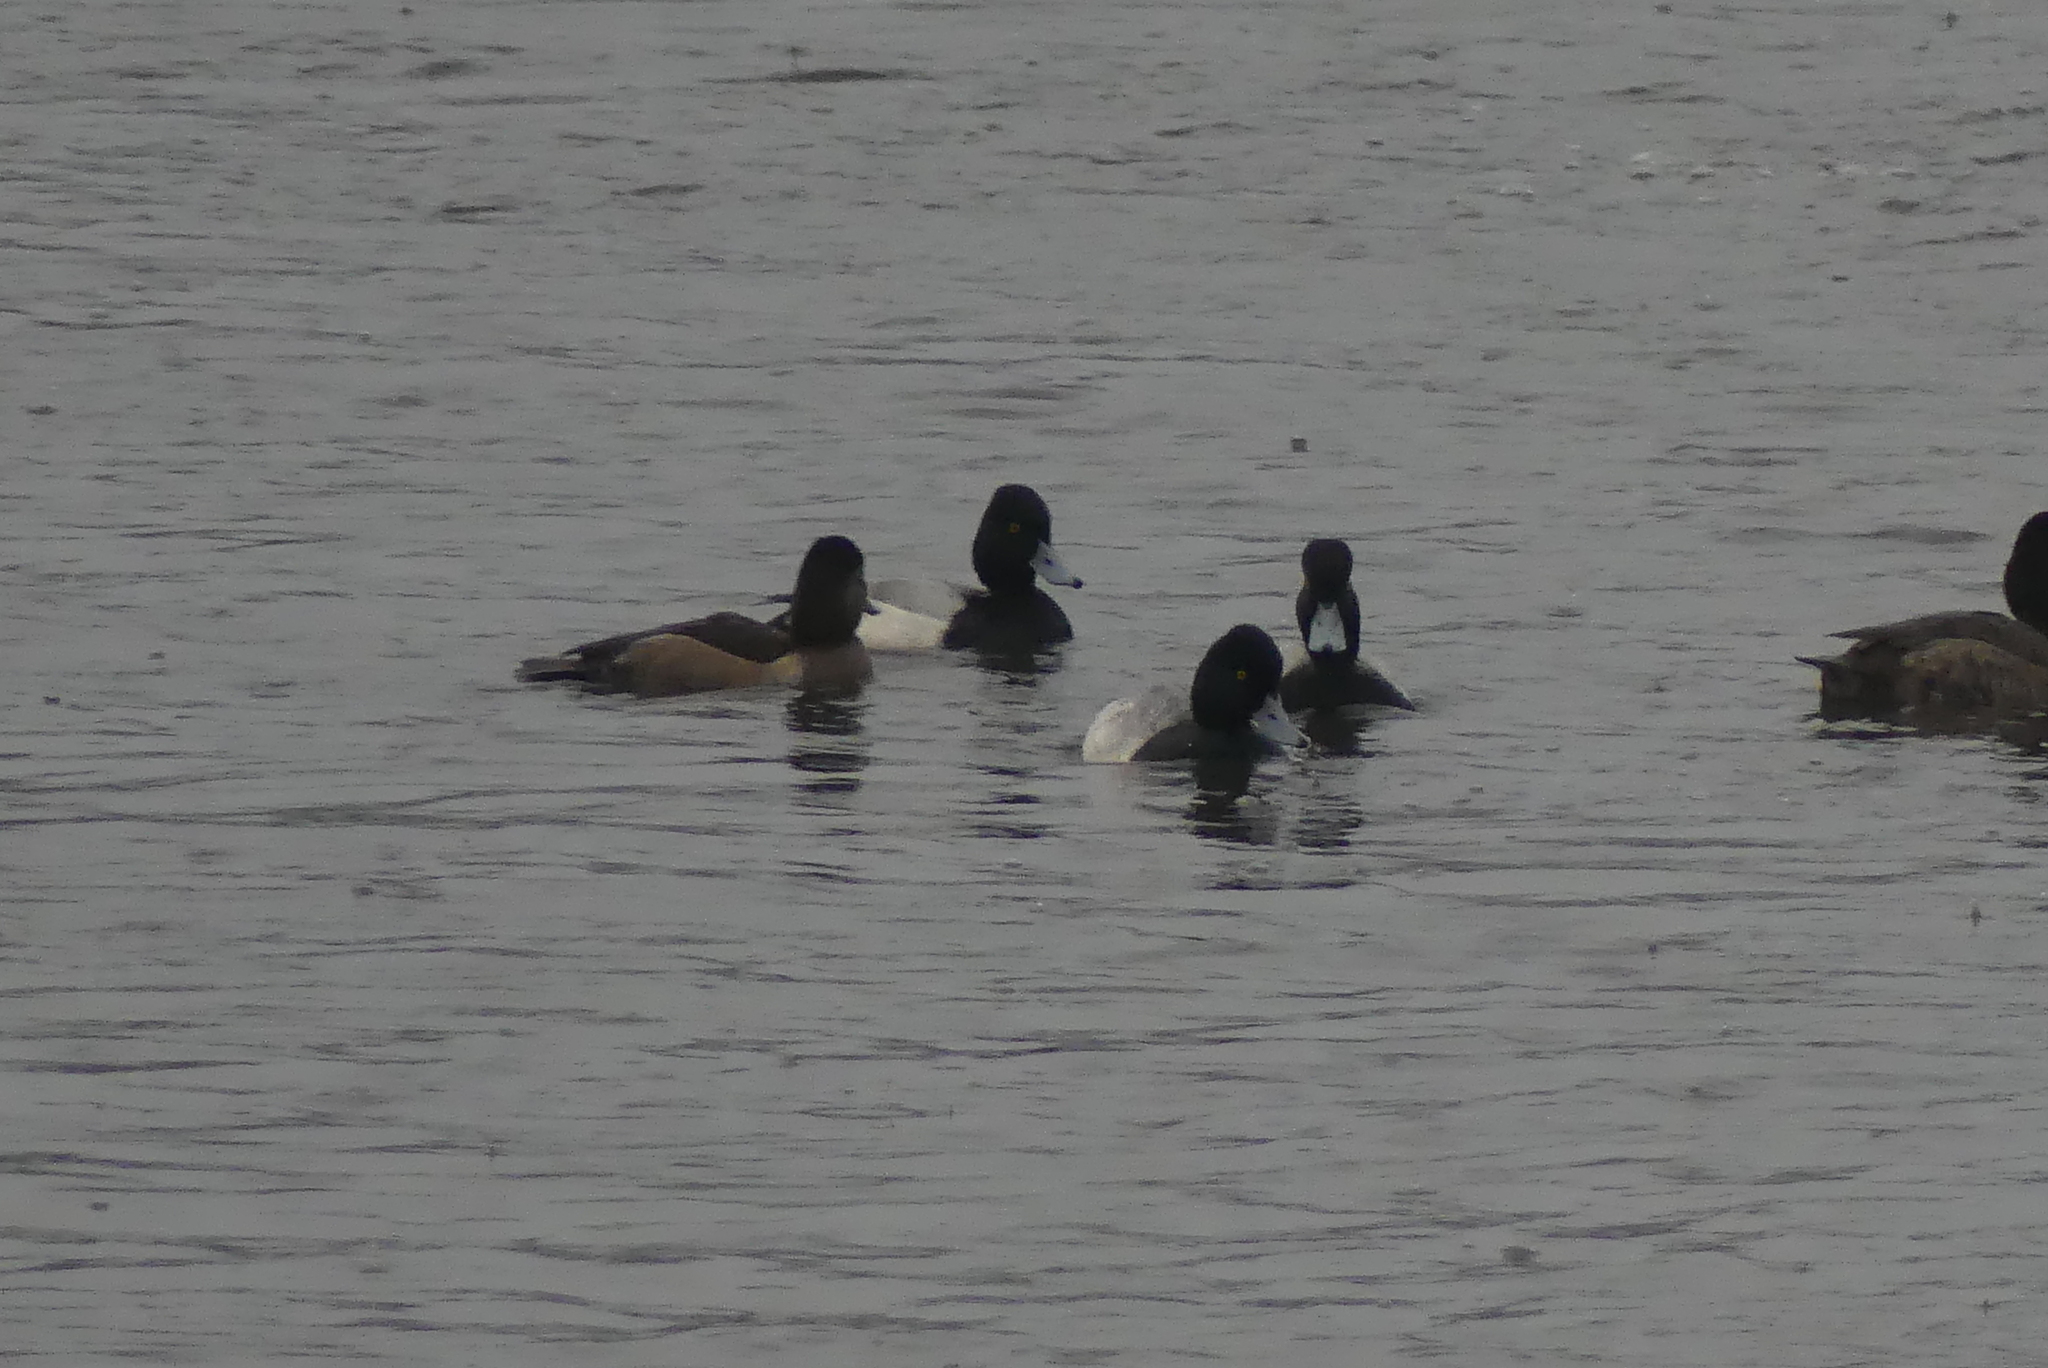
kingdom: Animalia
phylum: Chordata
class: Aves
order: Anseriformes
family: Anatidae
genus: Aythya
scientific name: Aythya affinis
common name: Lesser scaup
